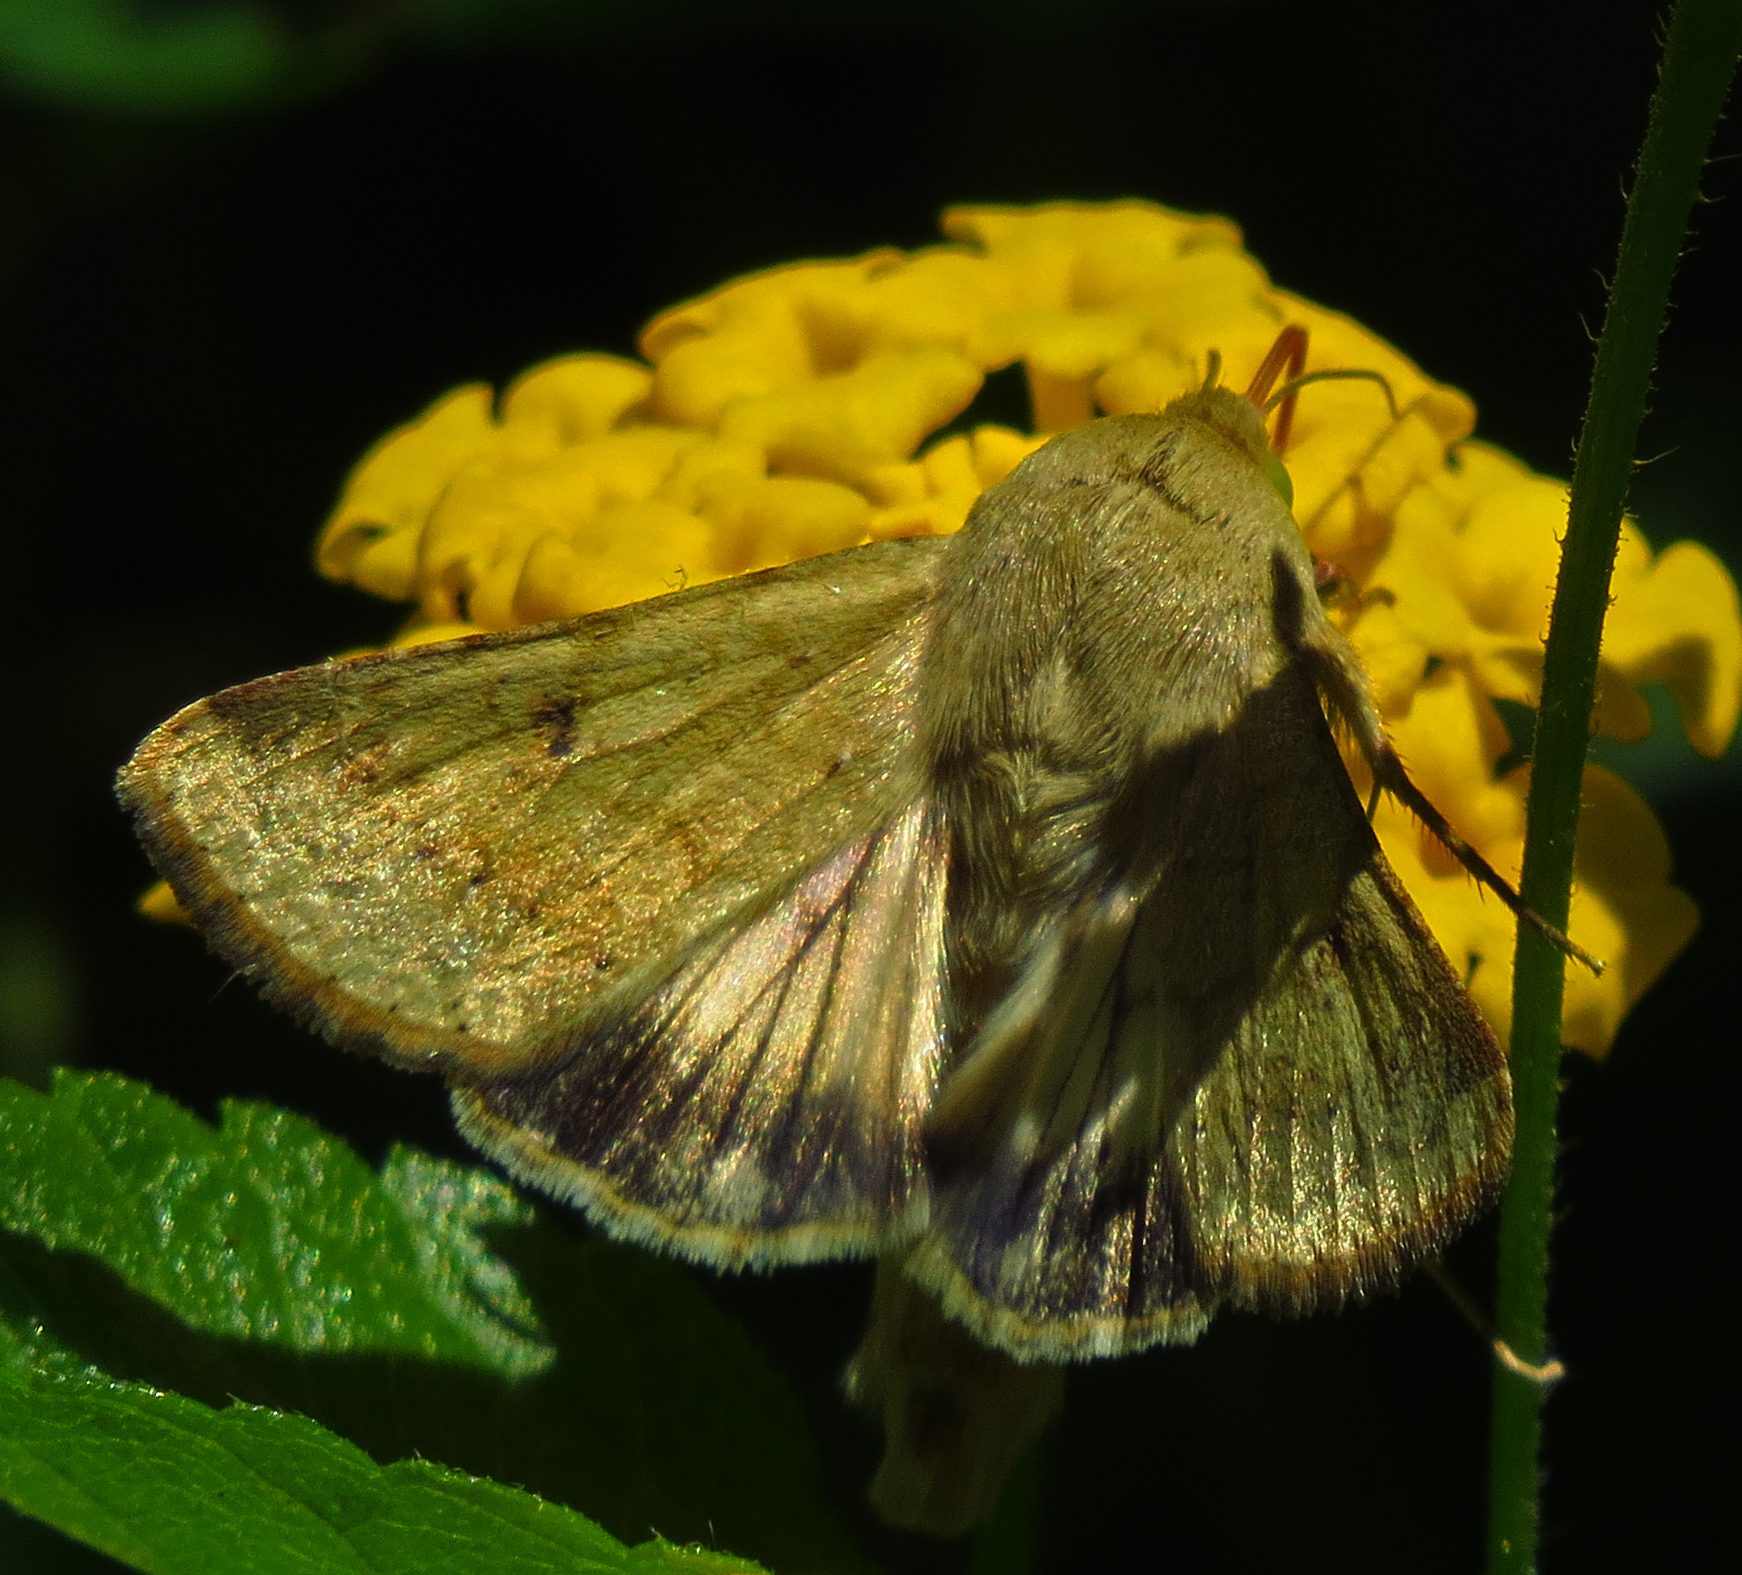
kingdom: Animalia
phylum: Arthropoda
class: Insecta
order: Lepidoptera
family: Noctuidae
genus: Helicoverpa
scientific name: Helicoverpa zea
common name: Bollworm
